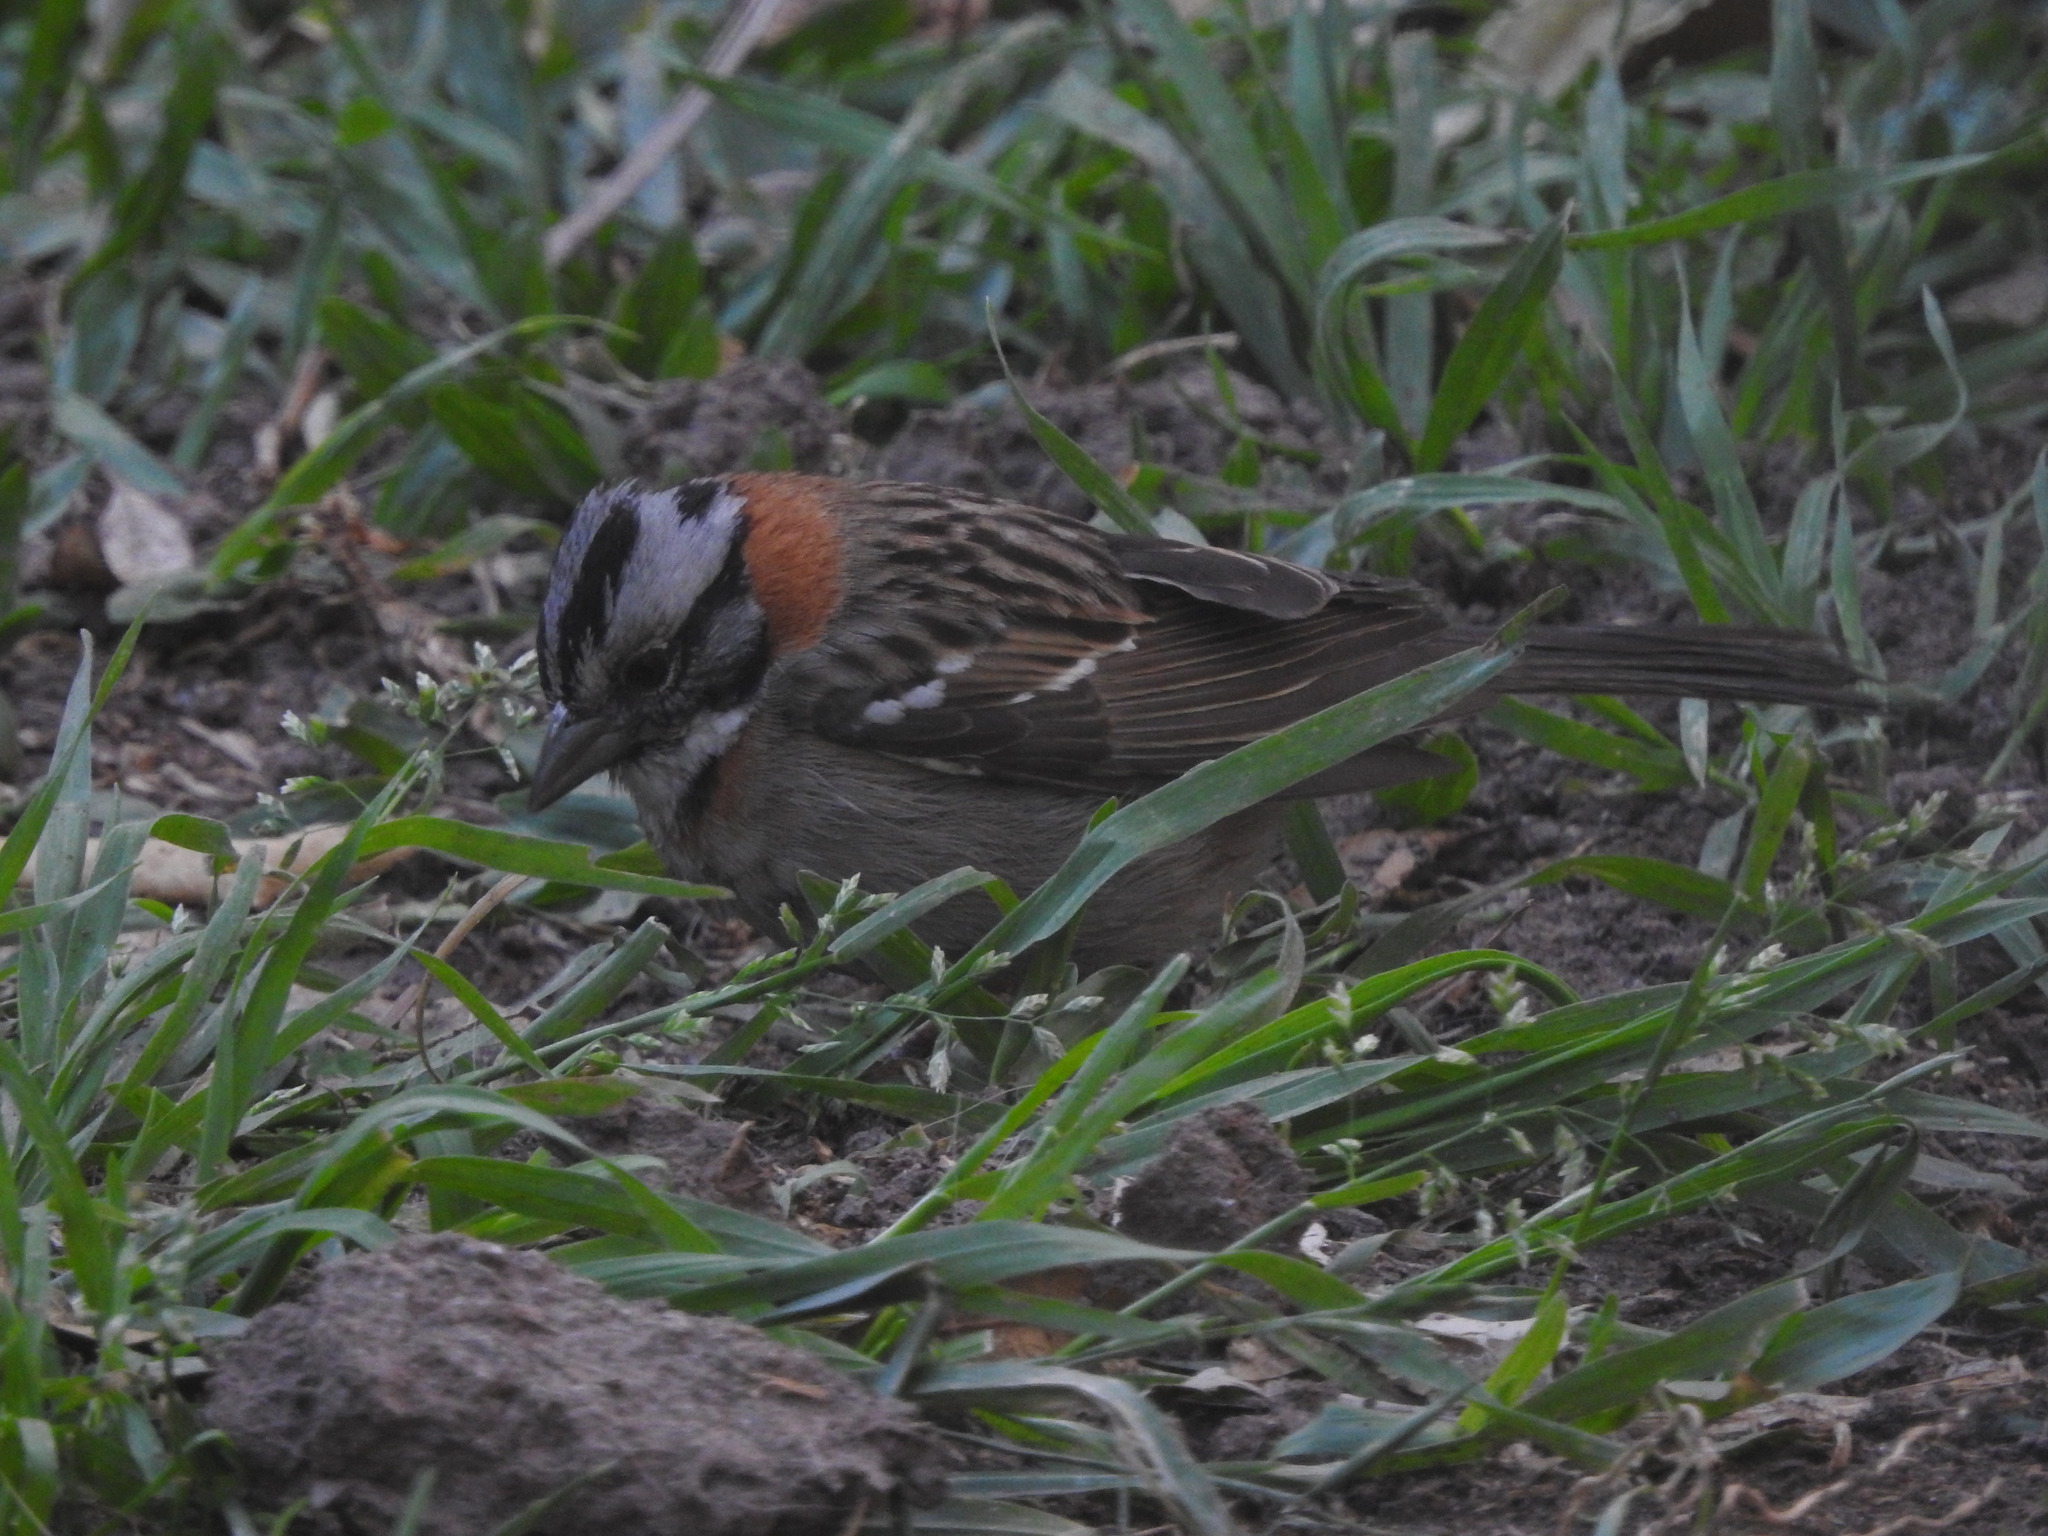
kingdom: Animalia
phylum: Chordata
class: Aves
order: Passeriformes
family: Passerellidae
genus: Zonotrichia
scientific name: Zonotrichia capensis
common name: Rufous-collared sparrow
